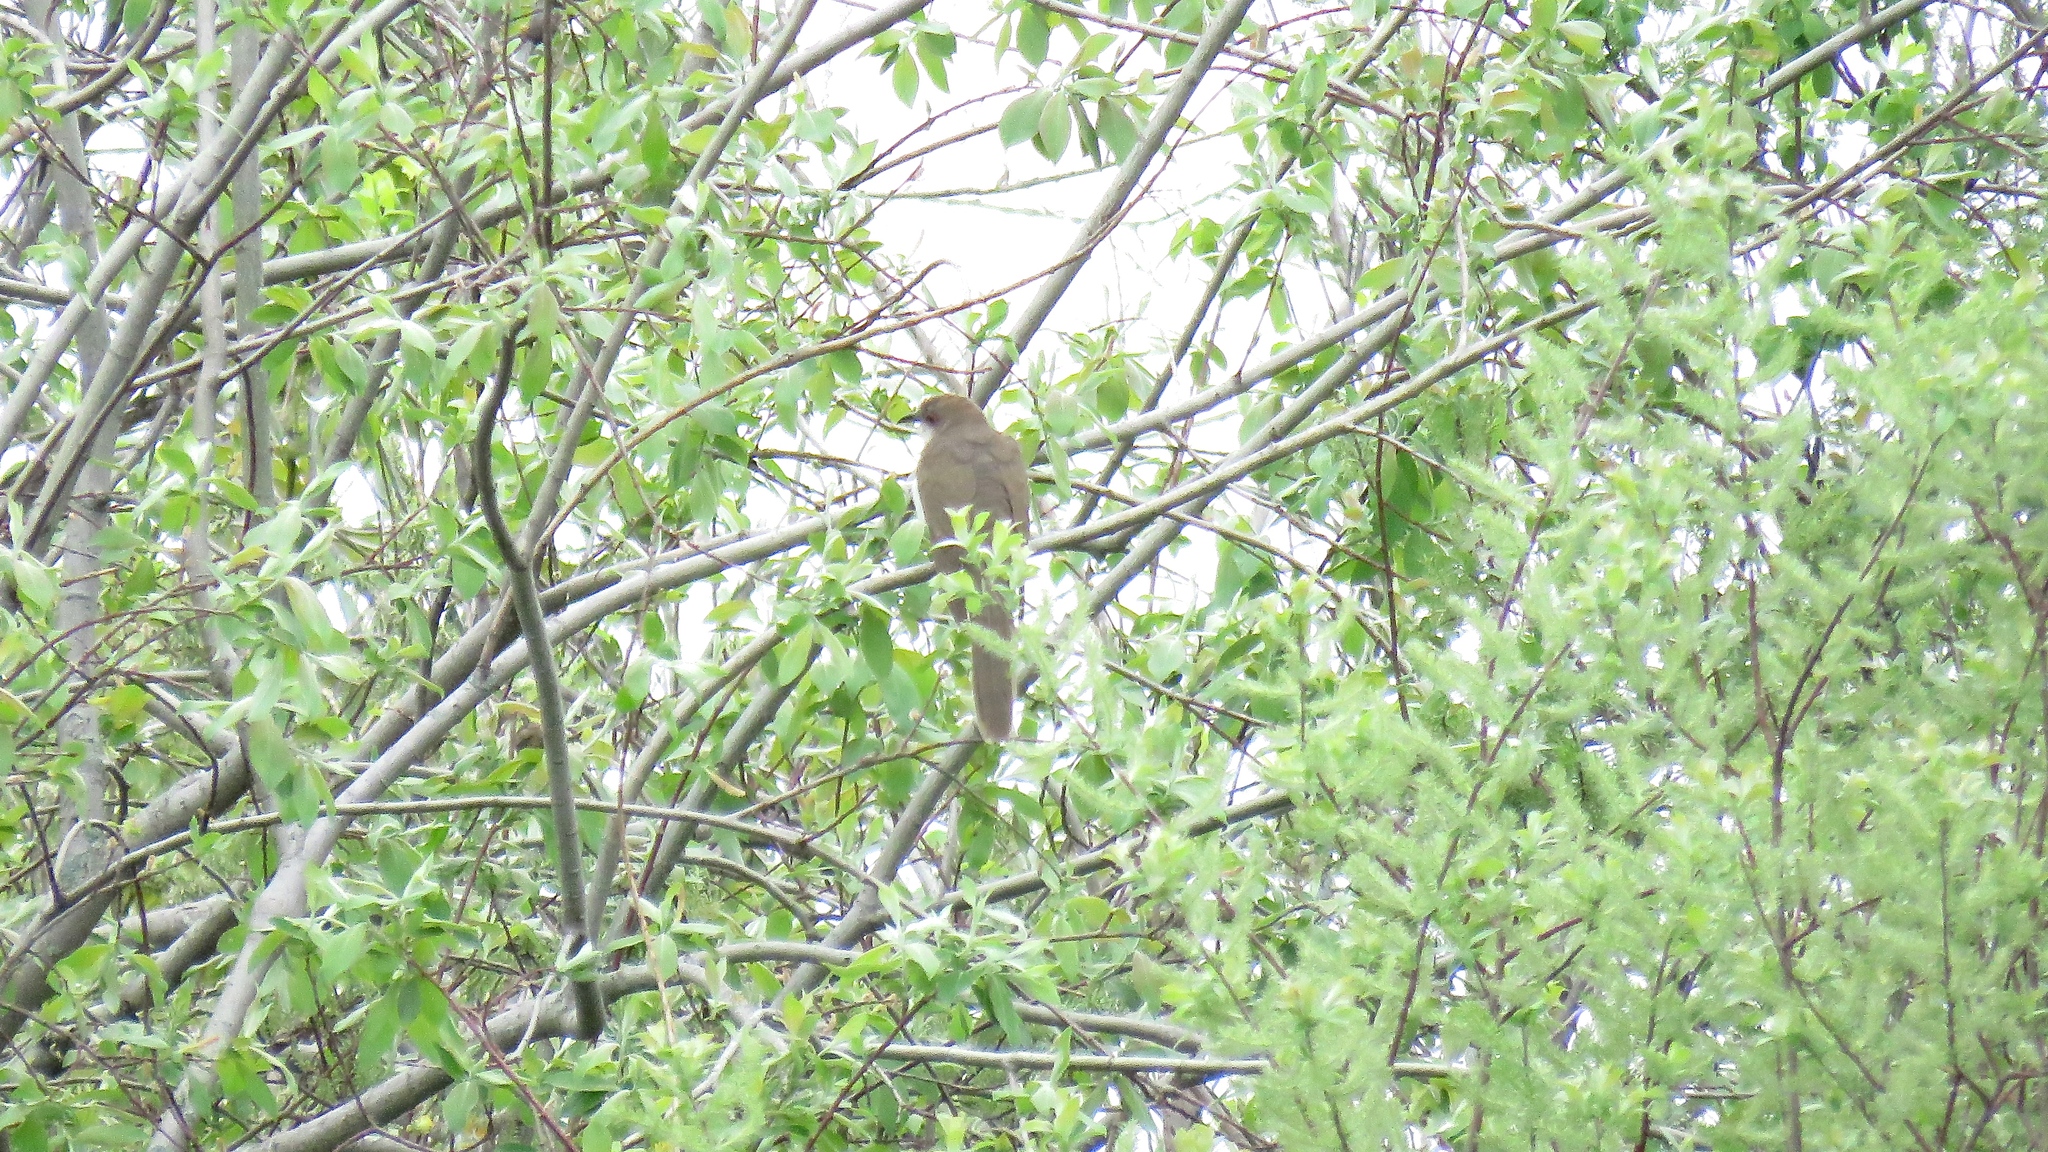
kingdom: Animalia
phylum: Chordata
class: Aves
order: Cuculiformes
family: Cuculidae
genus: Coccyzus
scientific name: Coccyzus erythropthalmus
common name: Black-billed cuckoo
